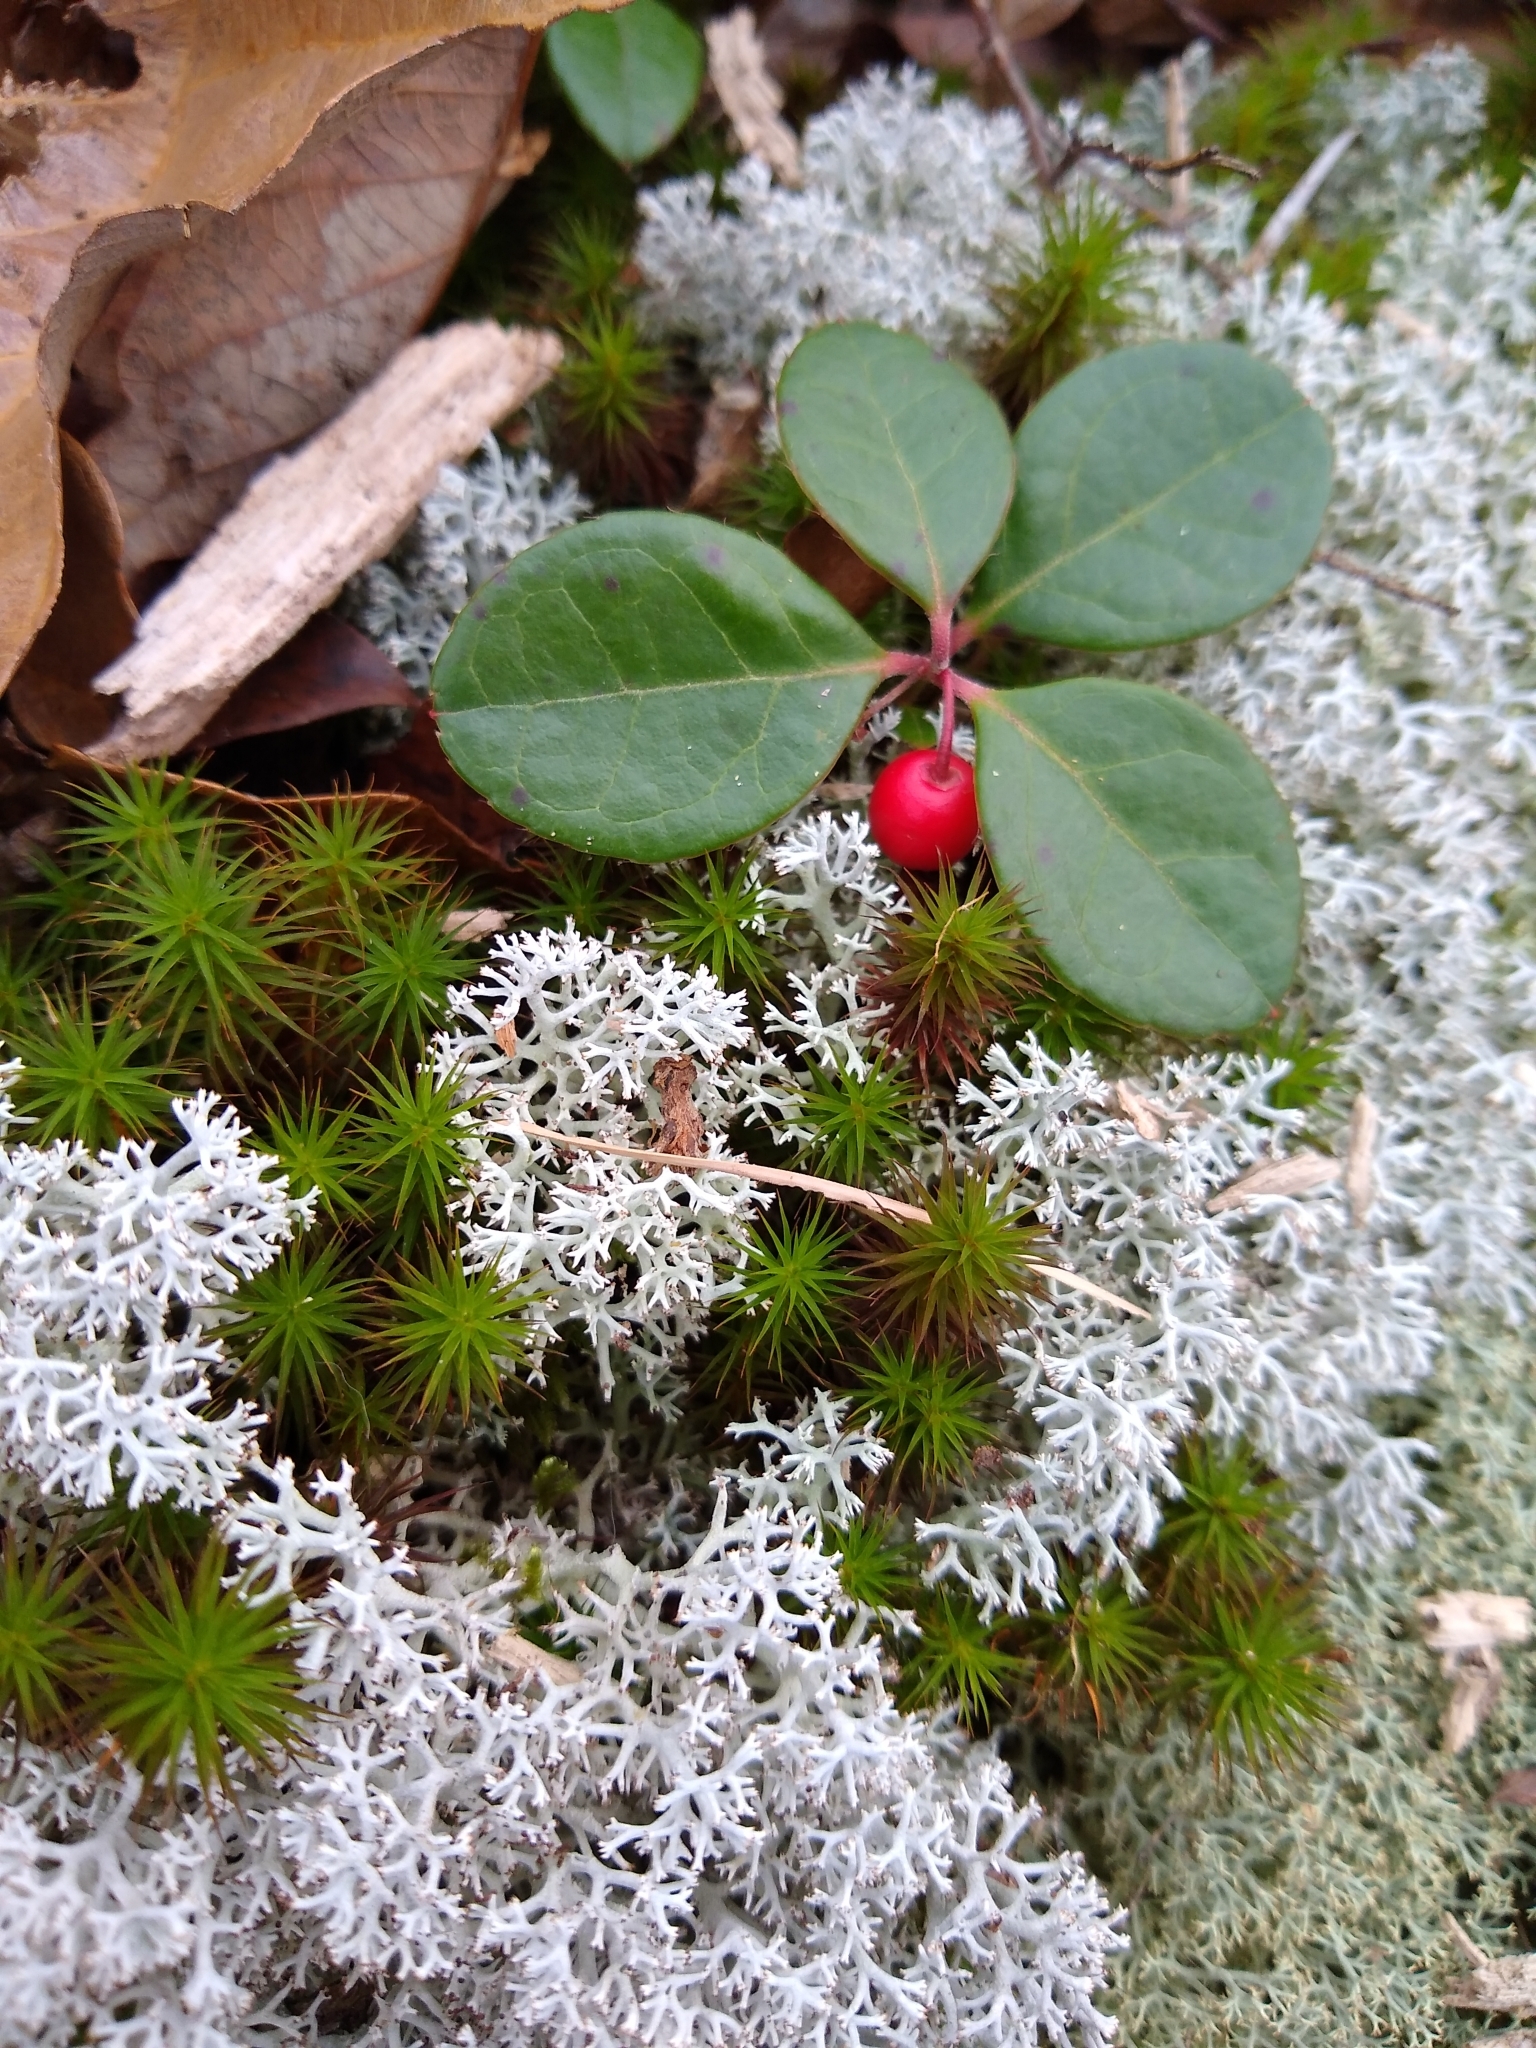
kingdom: Plantae
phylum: Tracheophyta
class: Magnoliopsida
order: Ericales
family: Ericaceae
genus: Gaultheria
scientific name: Gaultheria procumbens
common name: Checkerberry
